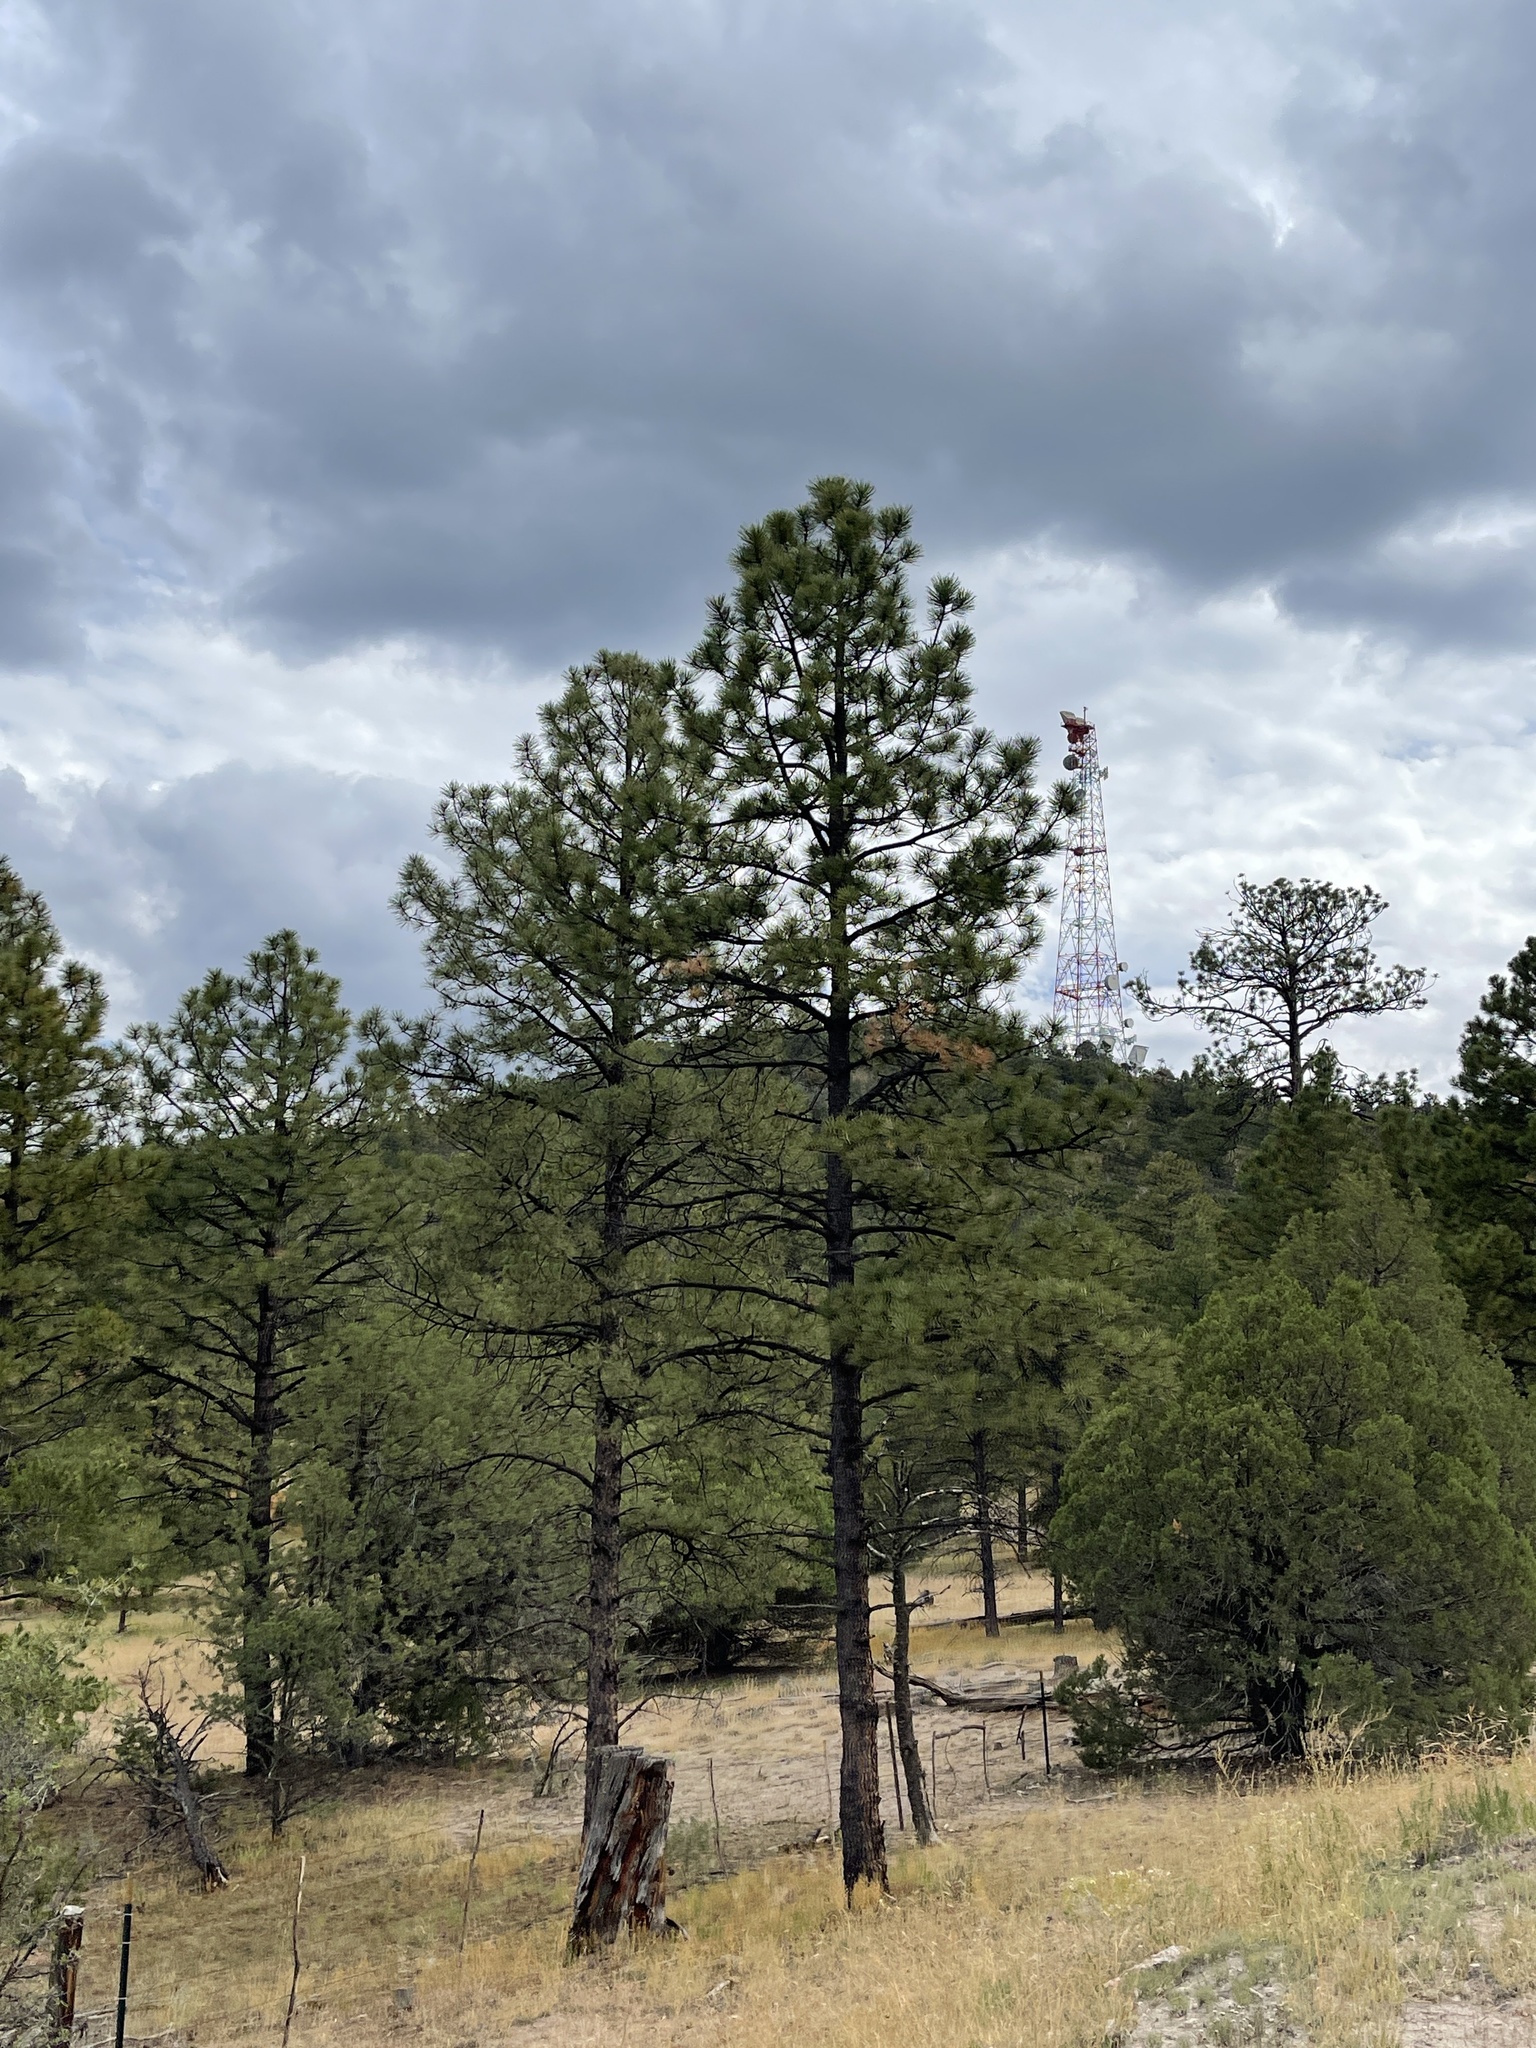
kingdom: Plantae
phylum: Tracheophyta
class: Pinopsida
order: Pinales
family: Pinaceae
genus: Pinus
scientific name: Pinus ponderosa
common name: Western yellow-pine
